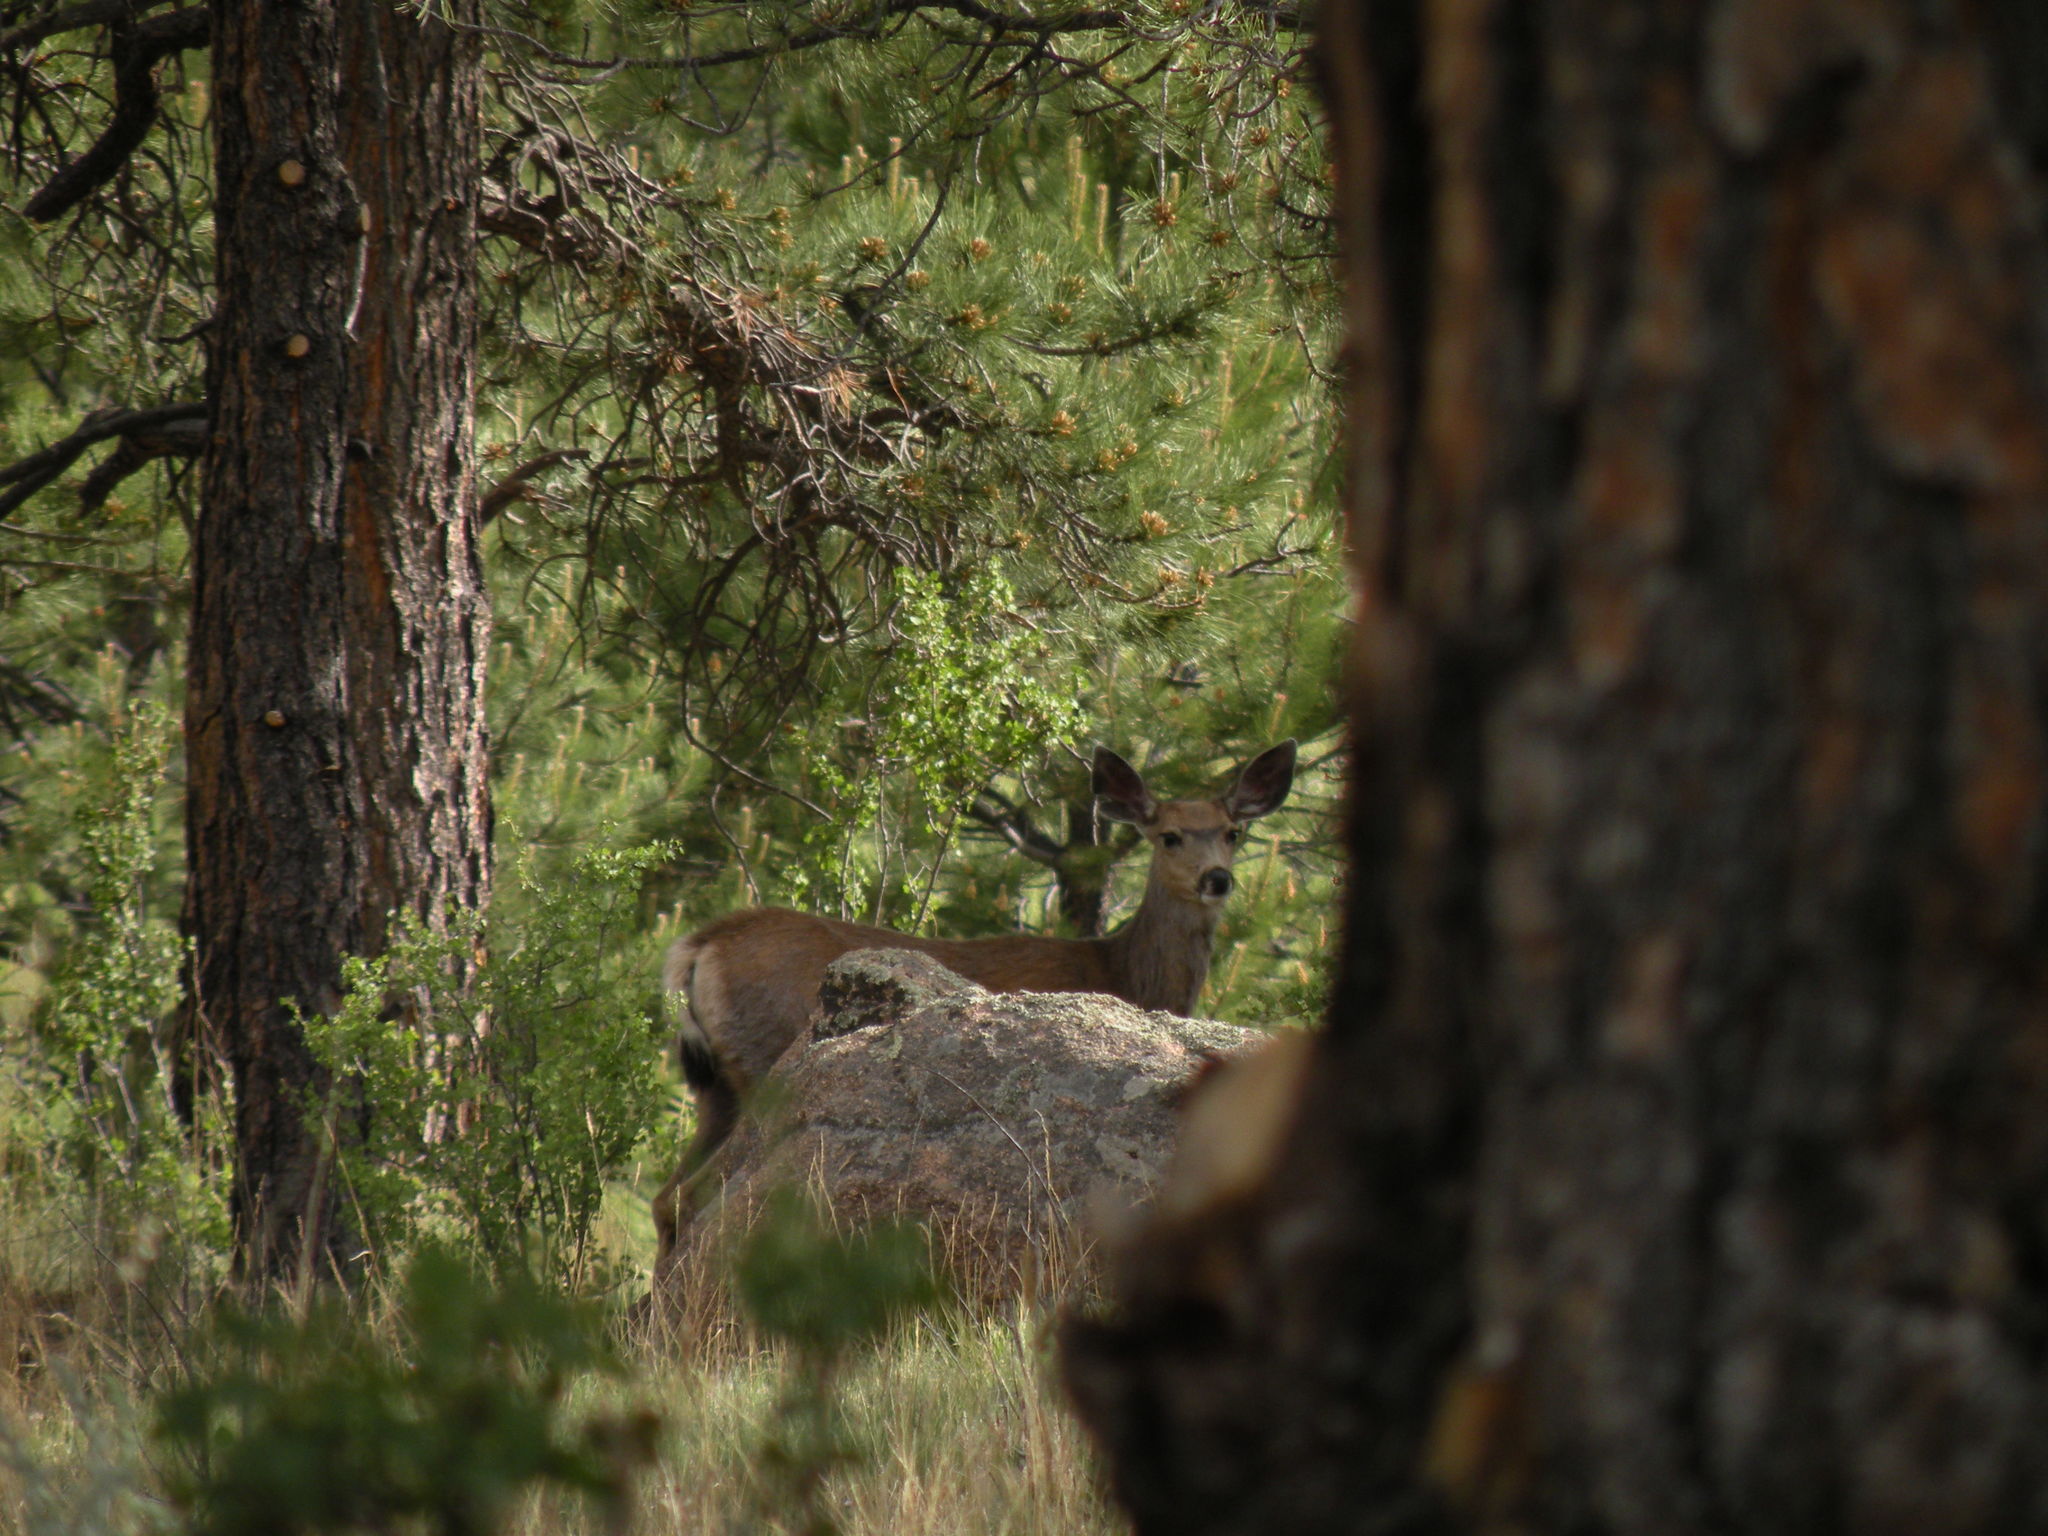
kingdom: Animalia
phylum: Chordata
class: Mammalia
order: Artiodactyla
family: Cervidae
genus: Odocoileus
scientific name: Odocoileus hemionus
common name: Mule deer
